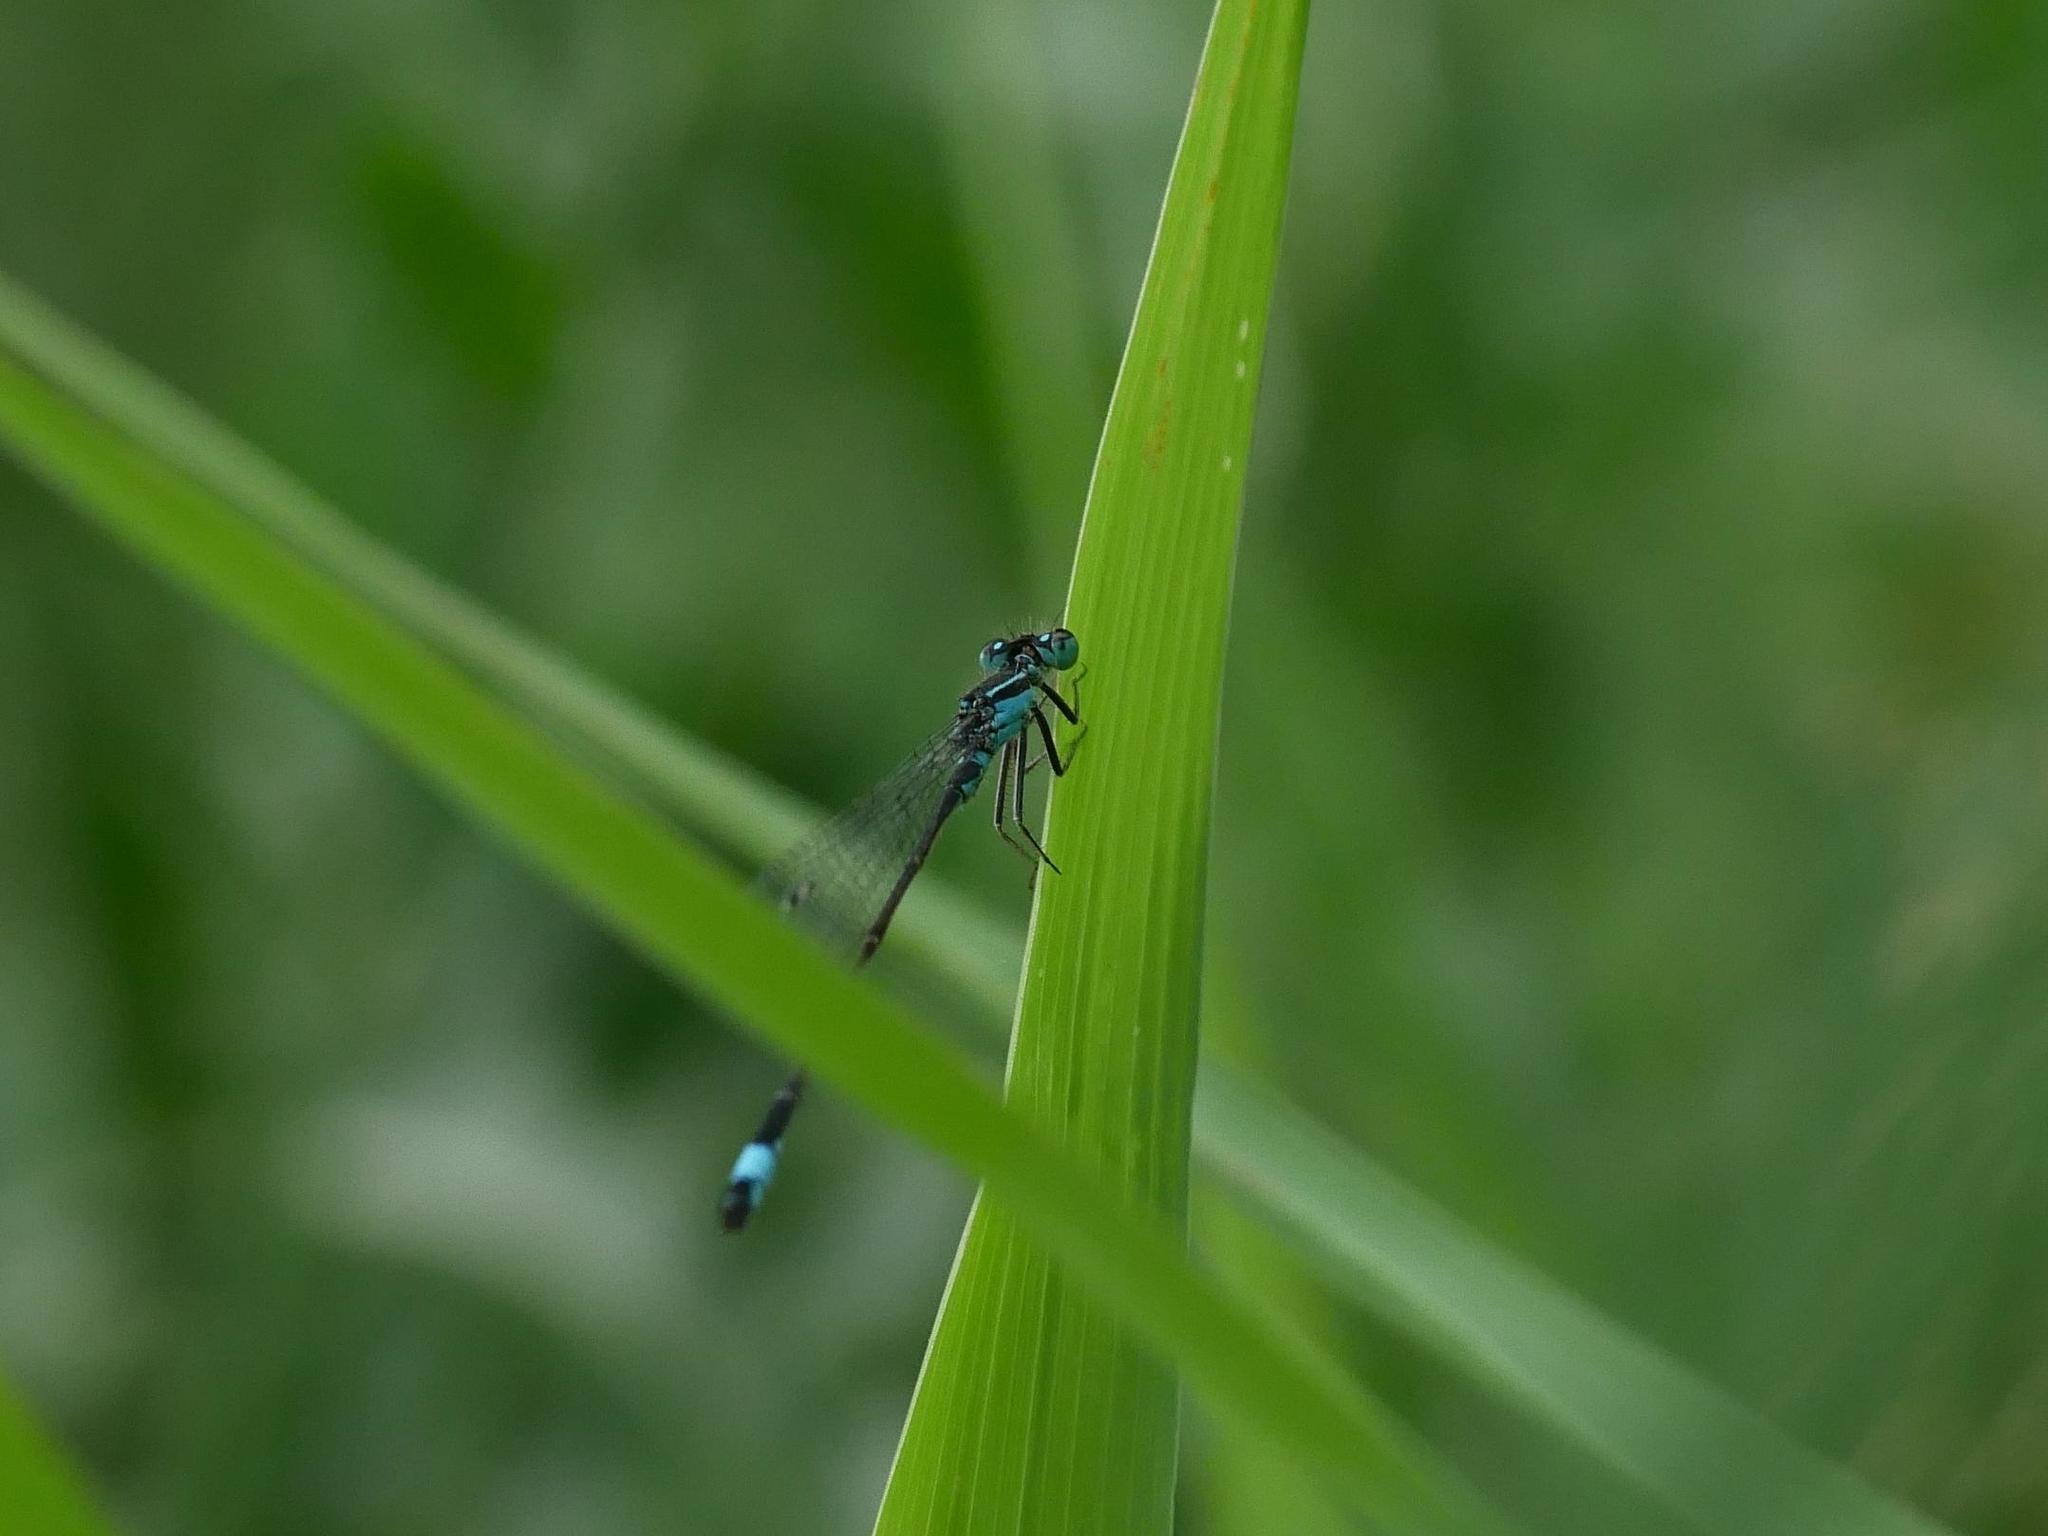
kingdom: Animalia
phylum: Arthropoda
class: Insecta
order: Odonata
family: Coenagrionidae
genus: Ischnura
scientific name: Ischnura elegans
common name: Blue-tailed damselfly
